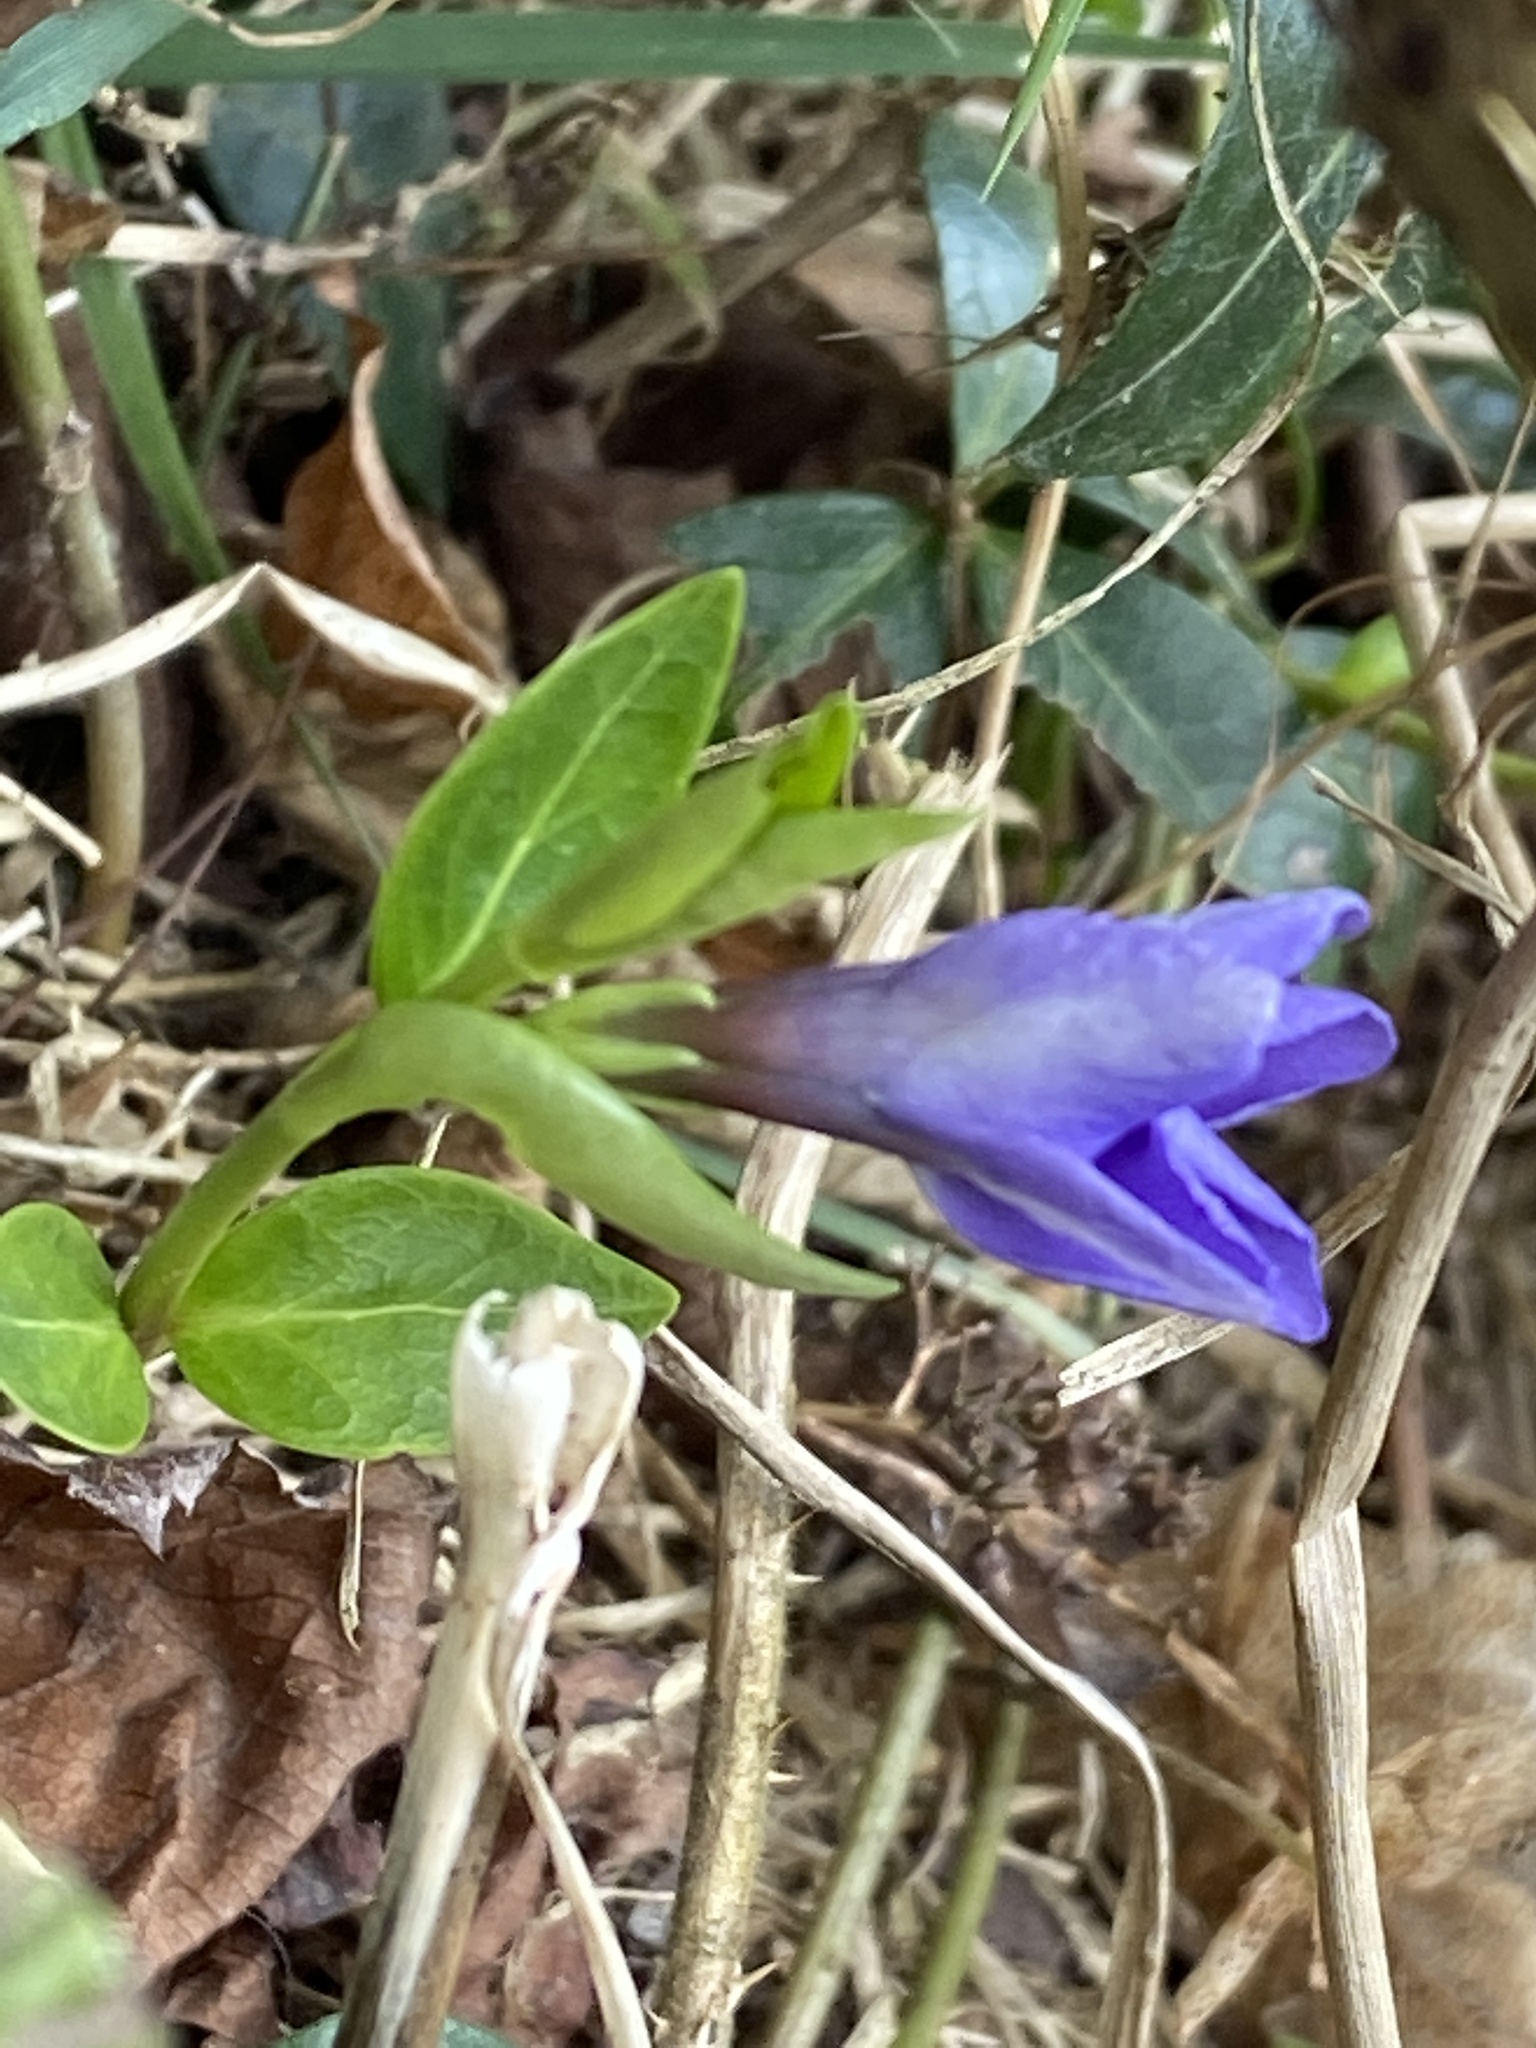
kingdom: Plantae
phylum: Tracheophyta
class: Magnoliopsida
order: Gentianales
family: Apocynaceae
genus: Vinca
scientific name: Vinca minor
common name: Lesser periwinkle
